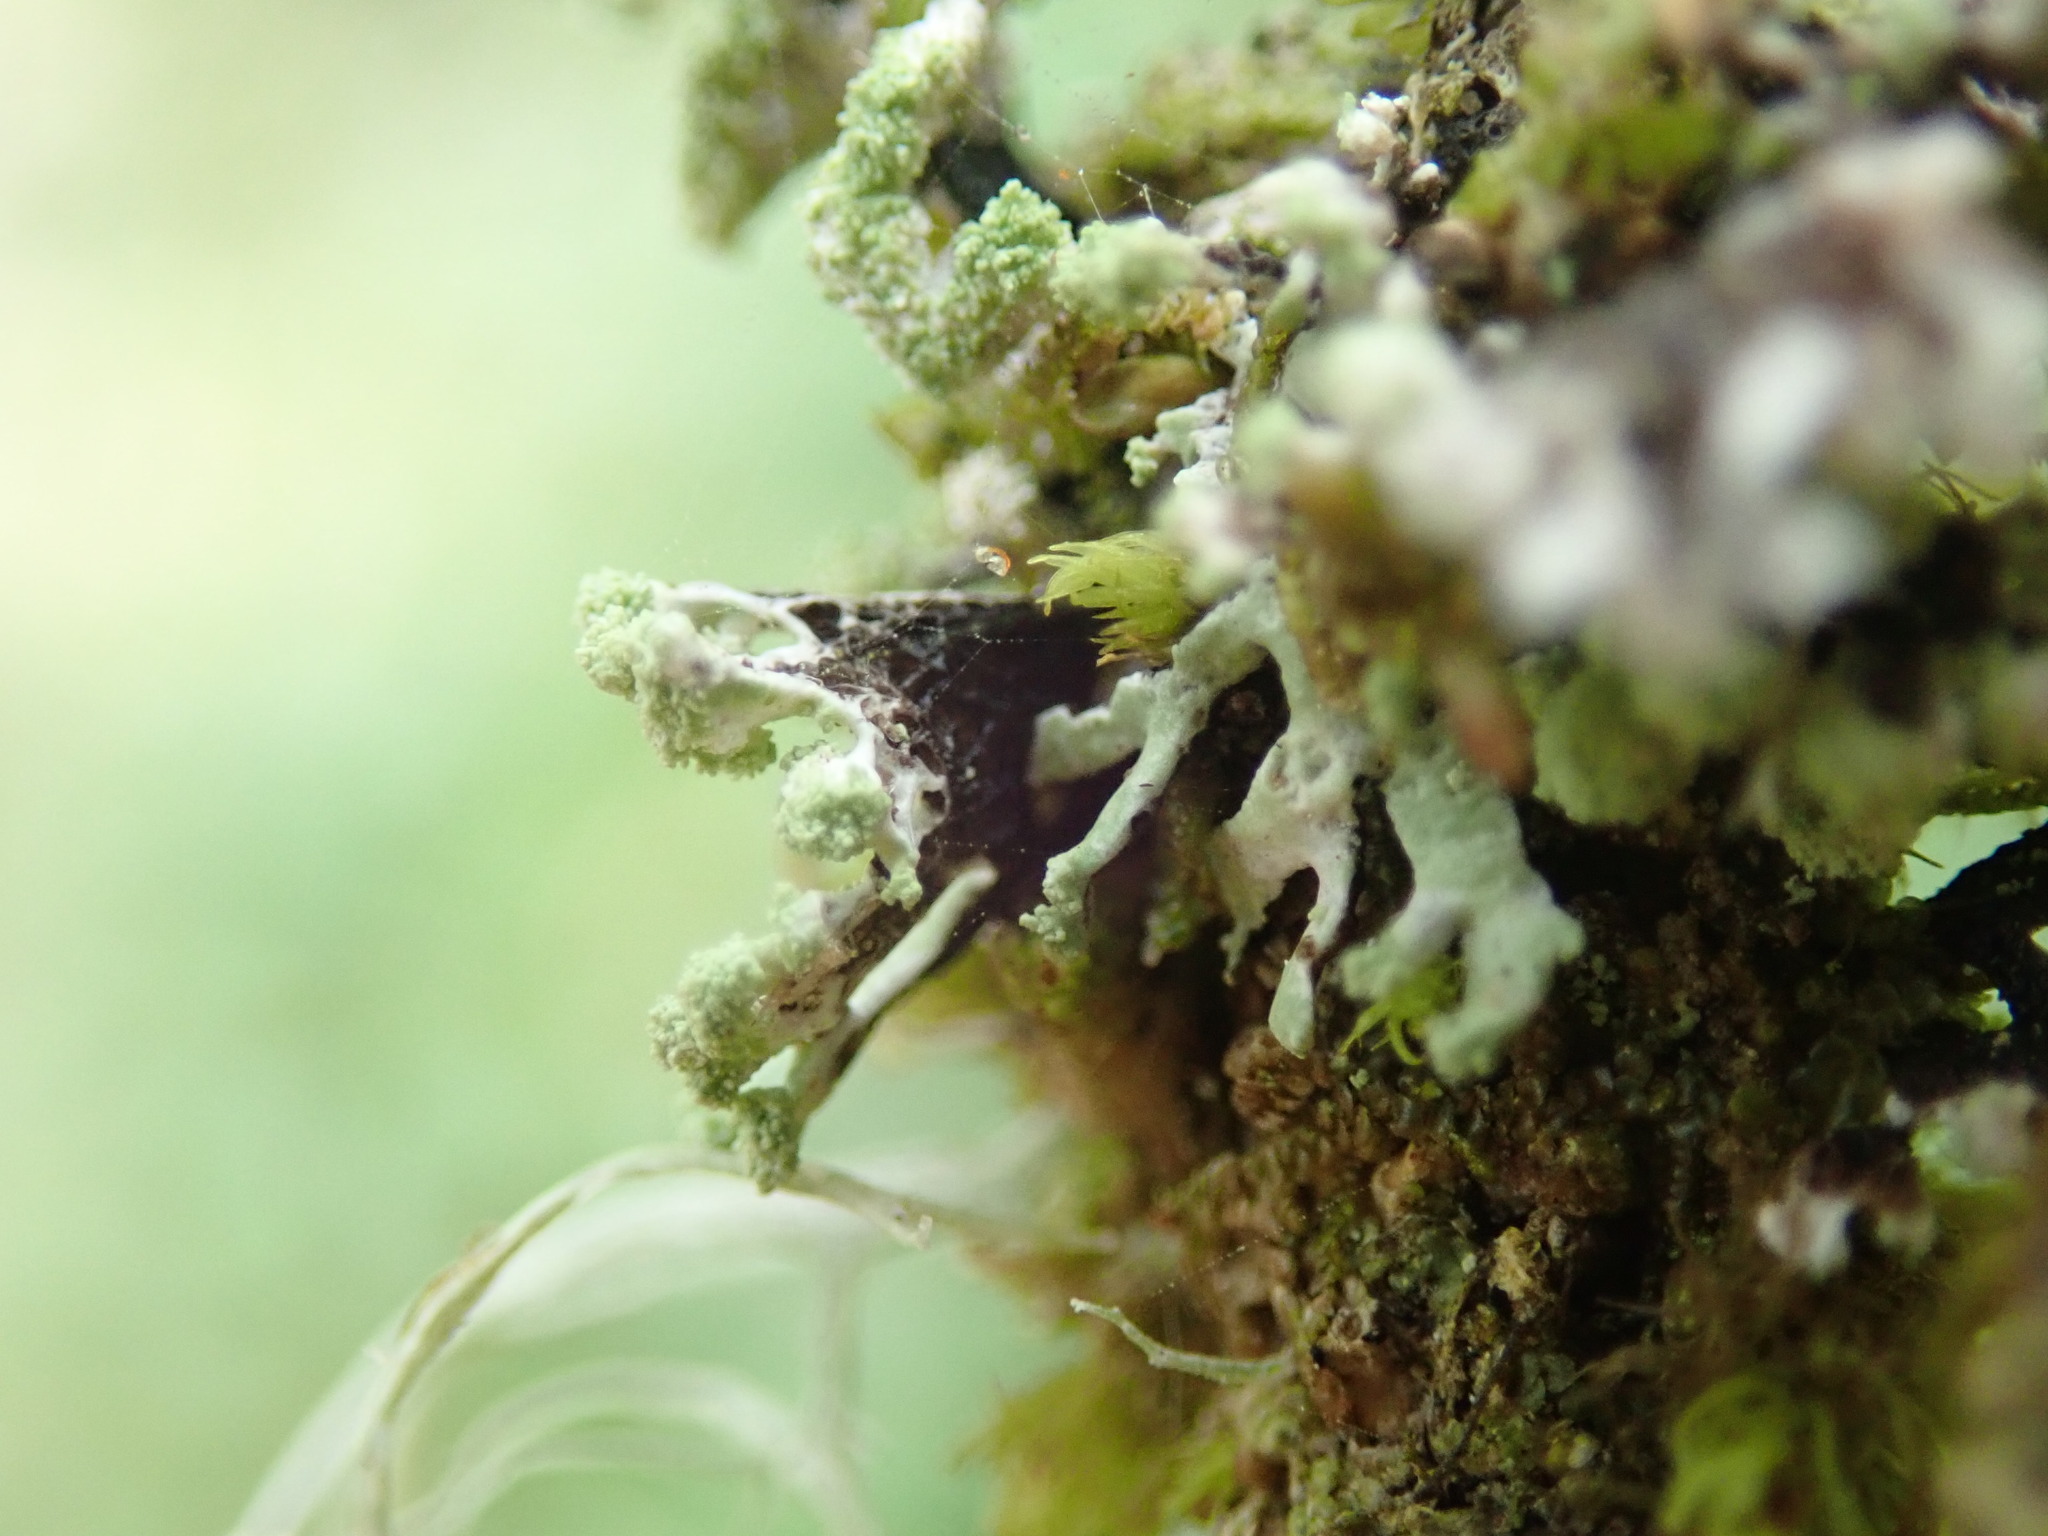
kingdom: Fungi
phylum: Ascomycota
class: Lecanoromycetes
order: Lecanorales
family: Parmeliaceae
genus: Hypogymnia
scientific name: Hypogymnia hultenii
